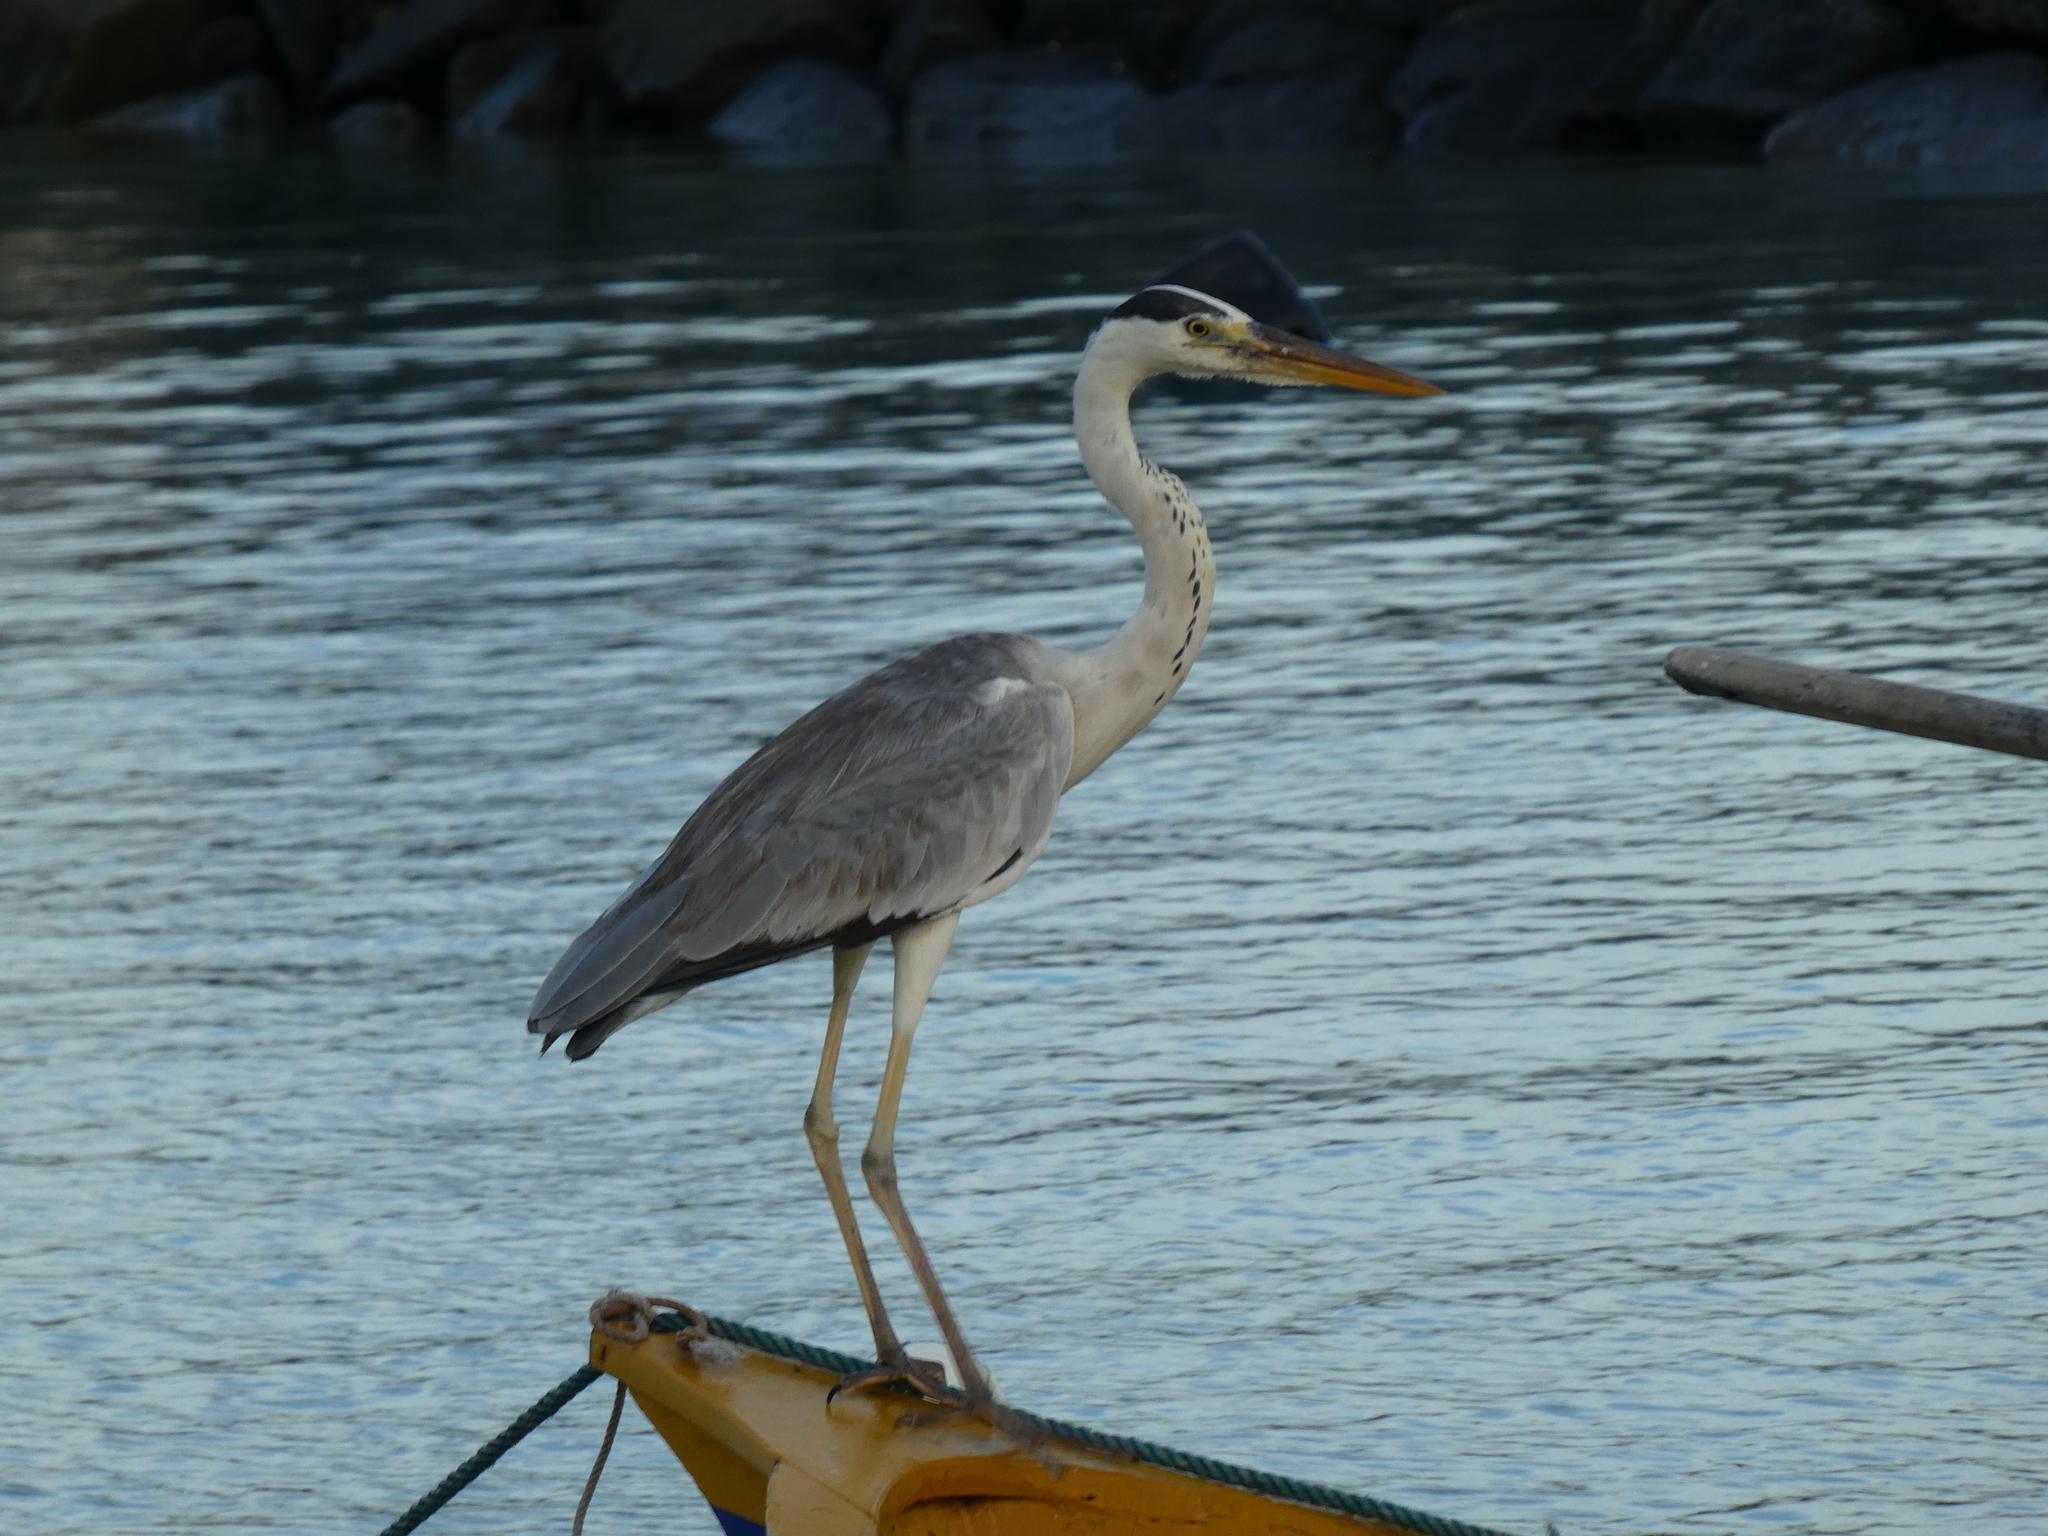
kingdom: Animalia
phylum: Chordata
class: Aves
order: Pelecaniformes
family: Ardeidae
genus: Ardea
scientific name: Ardea cinerea
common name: Grey heron
